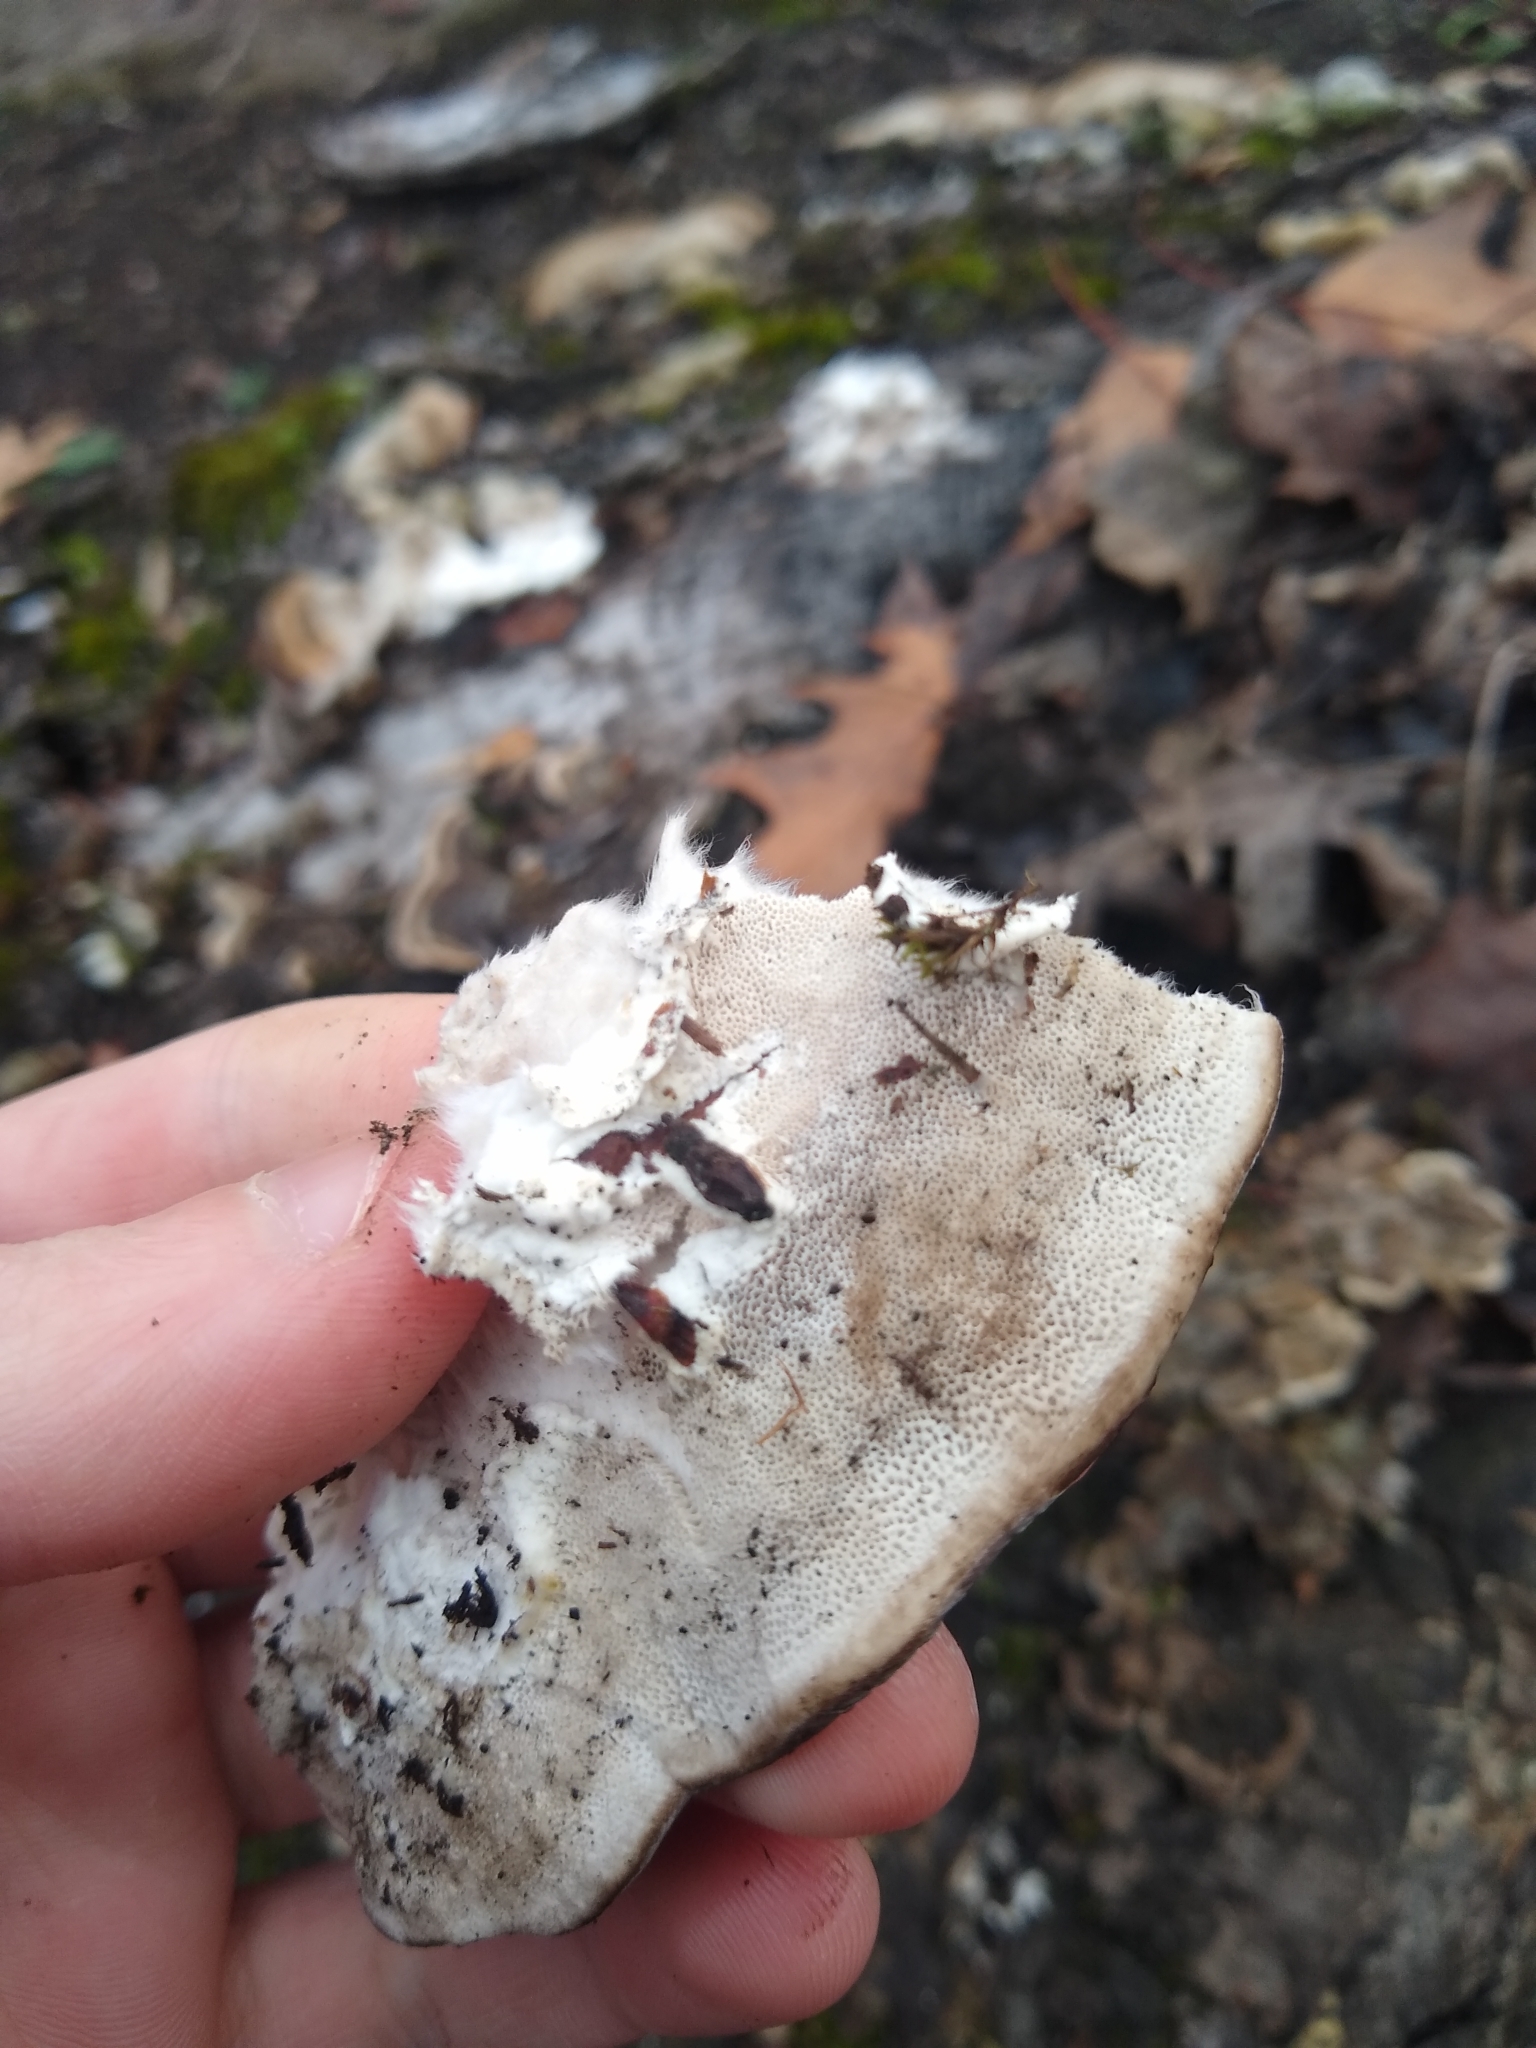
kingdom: Fungi
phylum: Basidiomycota
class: Agaricomycetes
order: Polyporales
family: Polyporaceae
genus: Trametes
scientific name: Trametes hirsuta
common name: Hairy bracket
